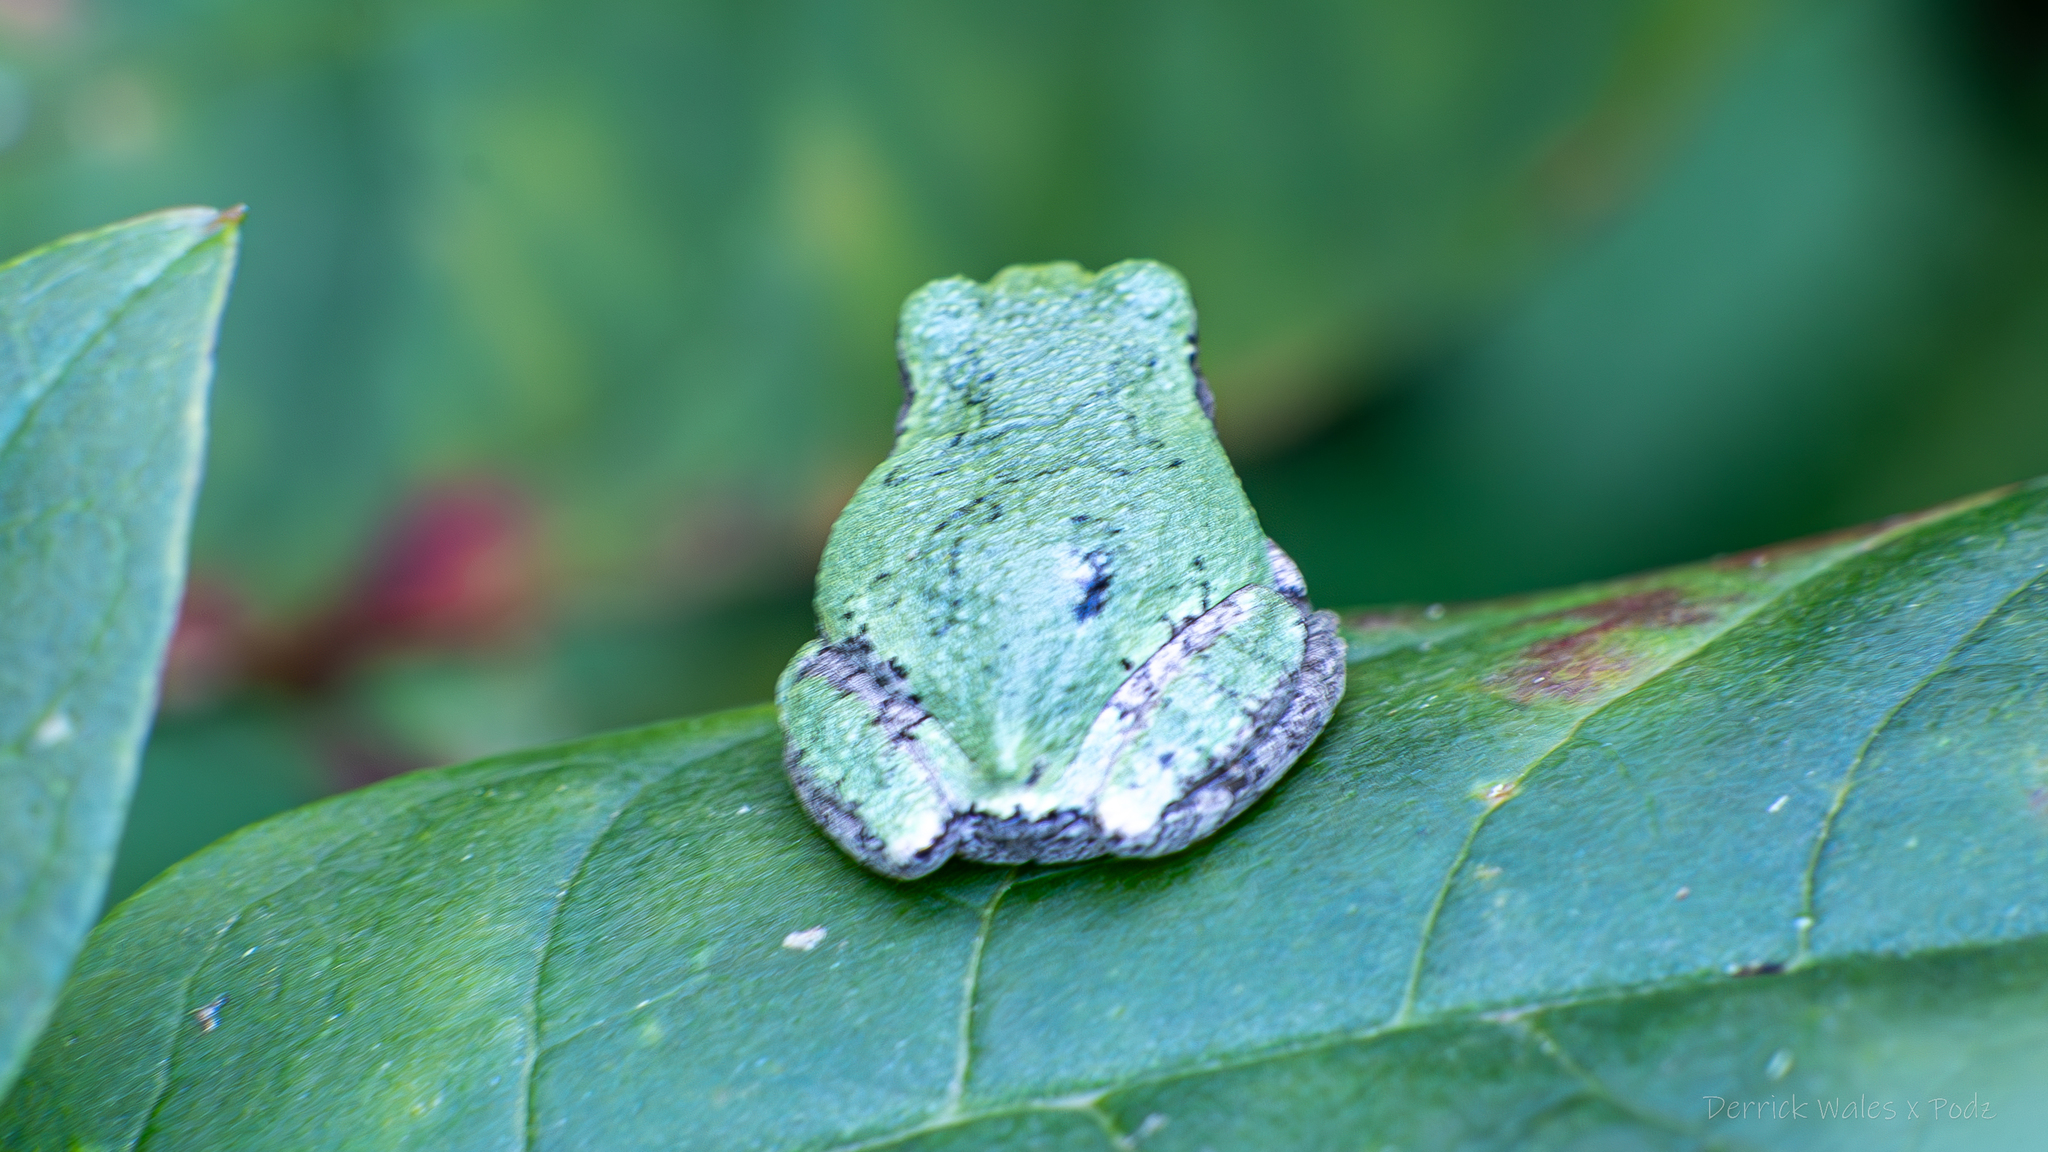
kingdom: Animalia
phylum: Chordata
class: Amphibia
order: Anura
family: Hylidae
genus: Dryophytes
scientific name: Dryophytes chrysoscelis
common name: Cope's gray treefrog
